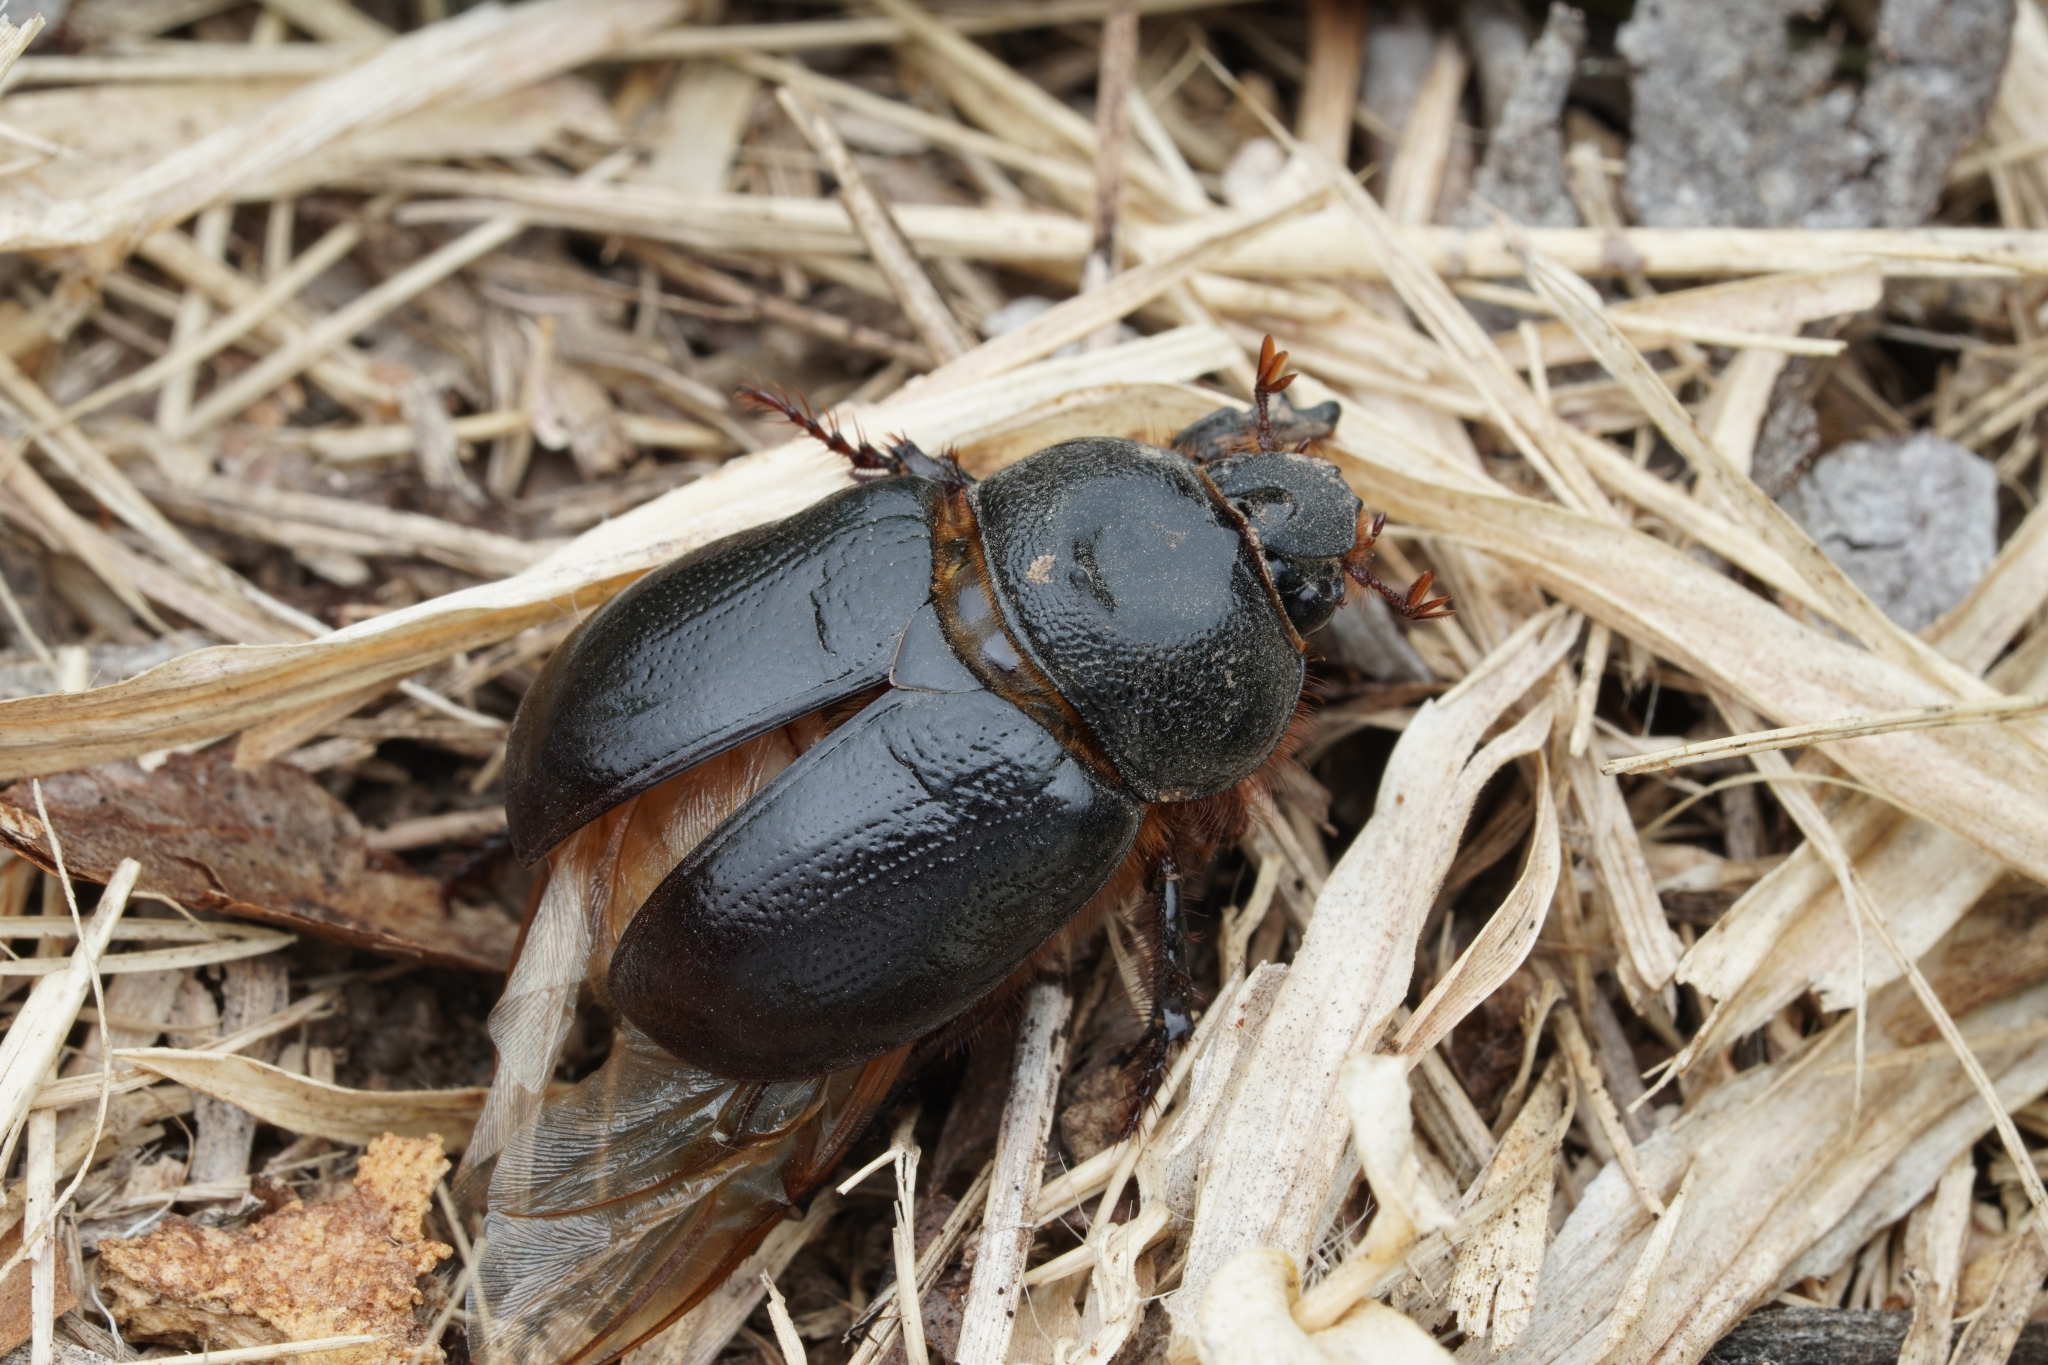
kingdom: Animalia
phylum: Arthropoda
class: Insecta
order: Coleoptera
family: Scarabaeidae
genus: Temnorhynchus
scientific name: Temnorhynchus coronatus
